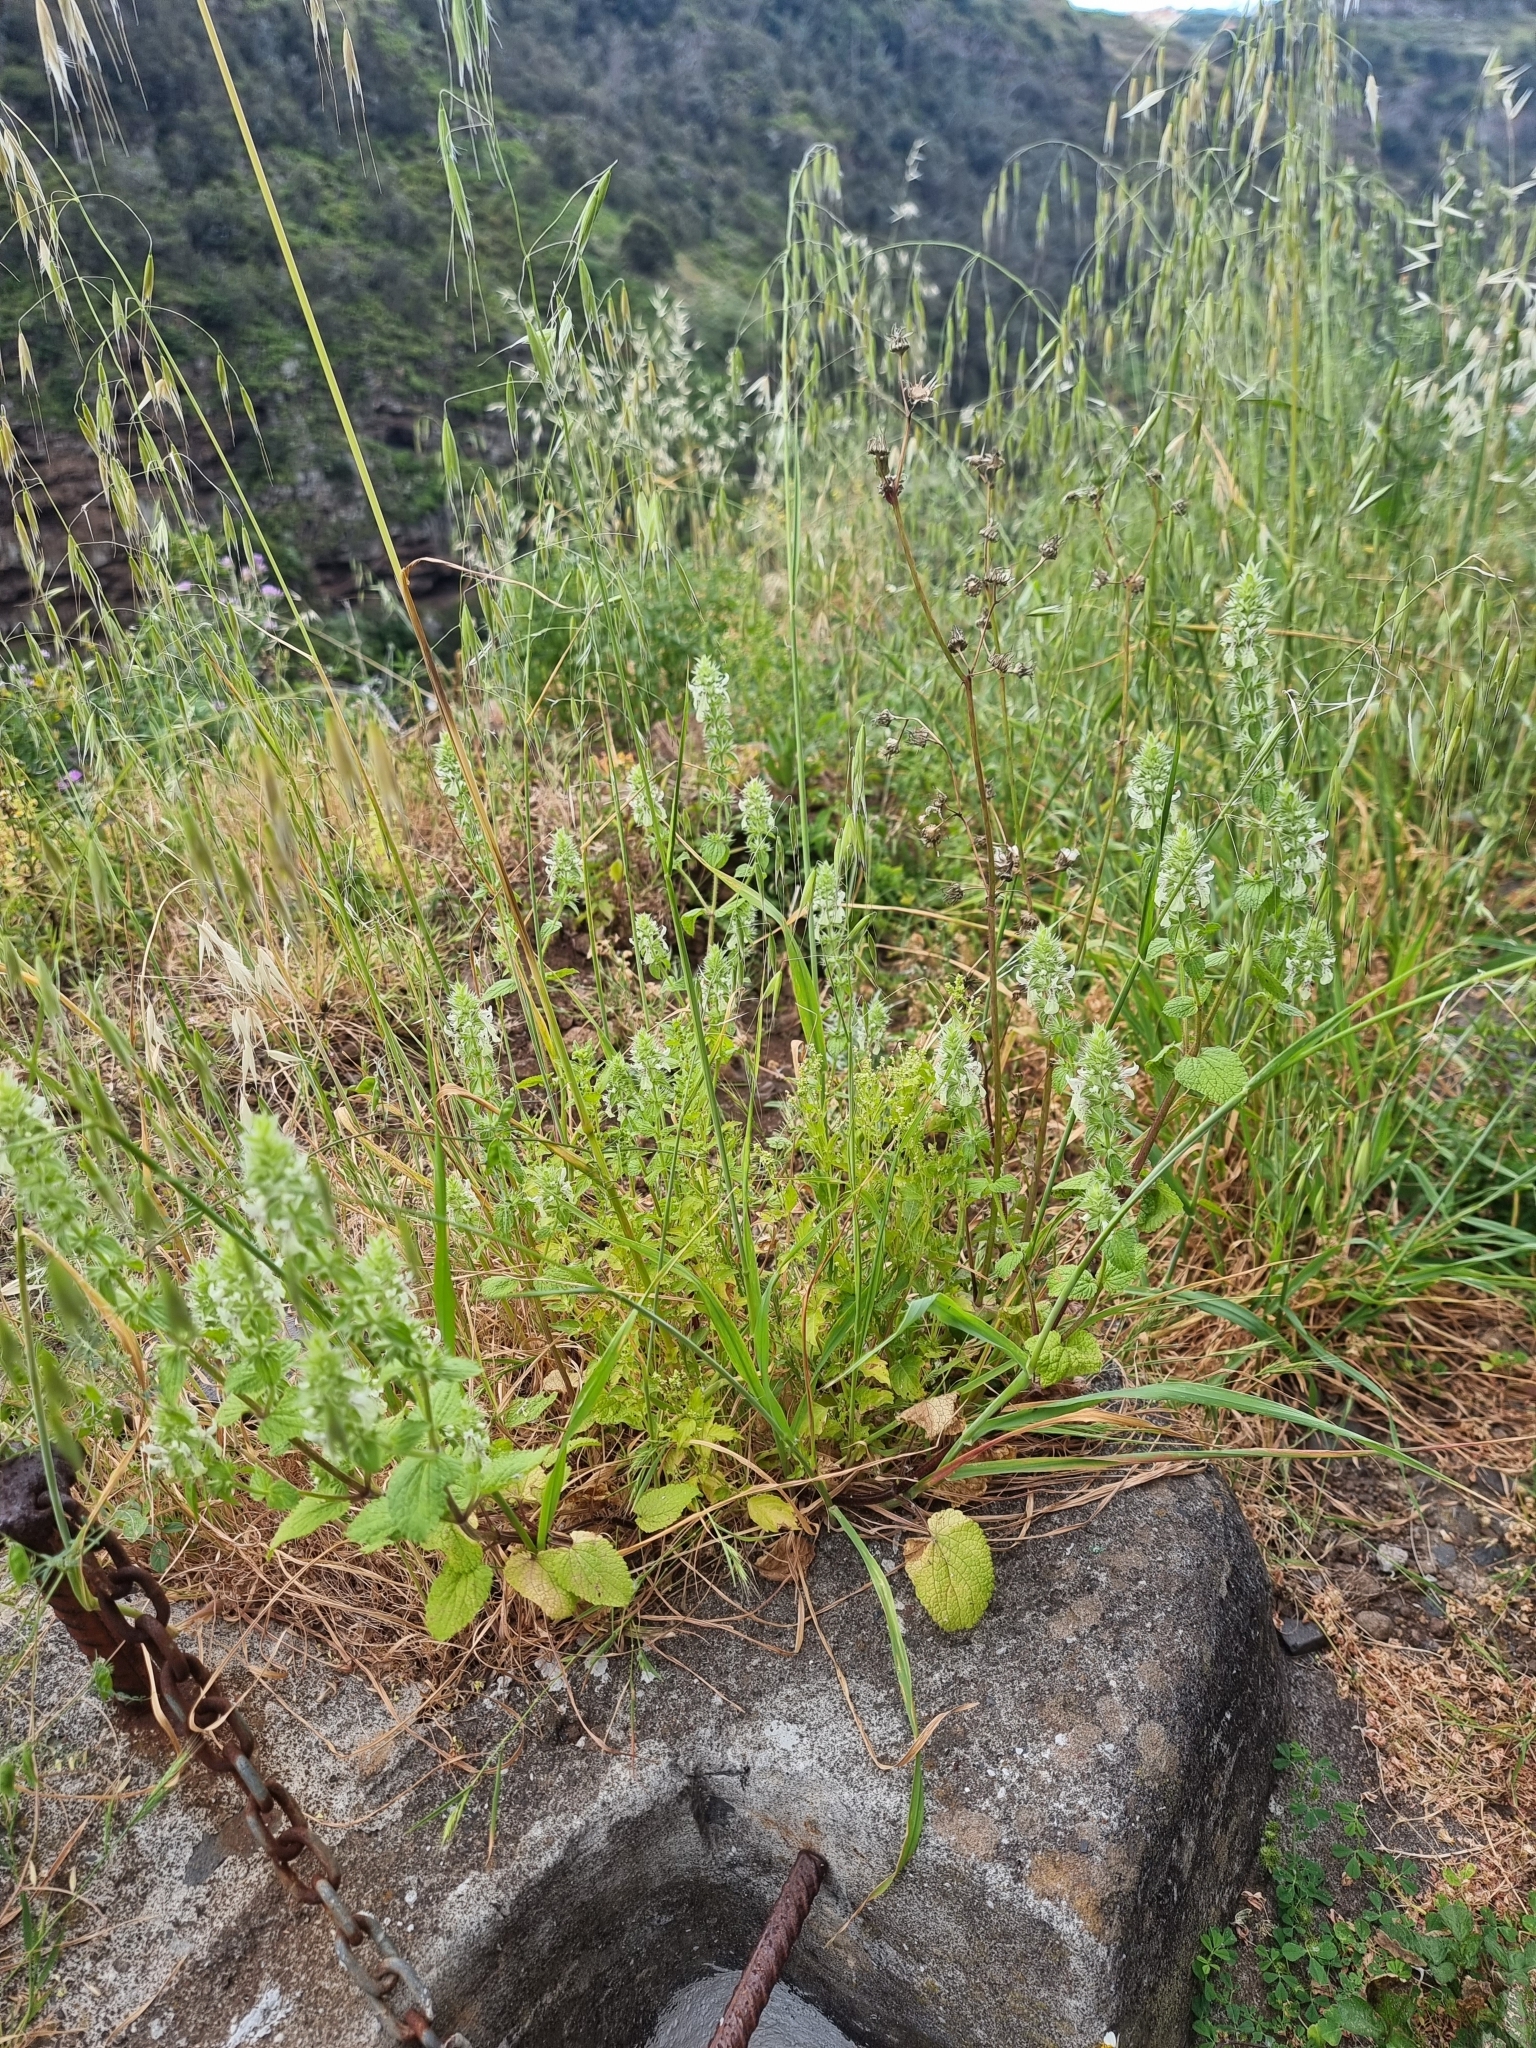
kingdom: Plantae
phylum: Tracheophyta
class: Magnoliopsida
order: Lamiales
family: Lamiaceae
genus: Stachys
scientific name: Stachys ocymastrum
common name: Italian hedgenettle
